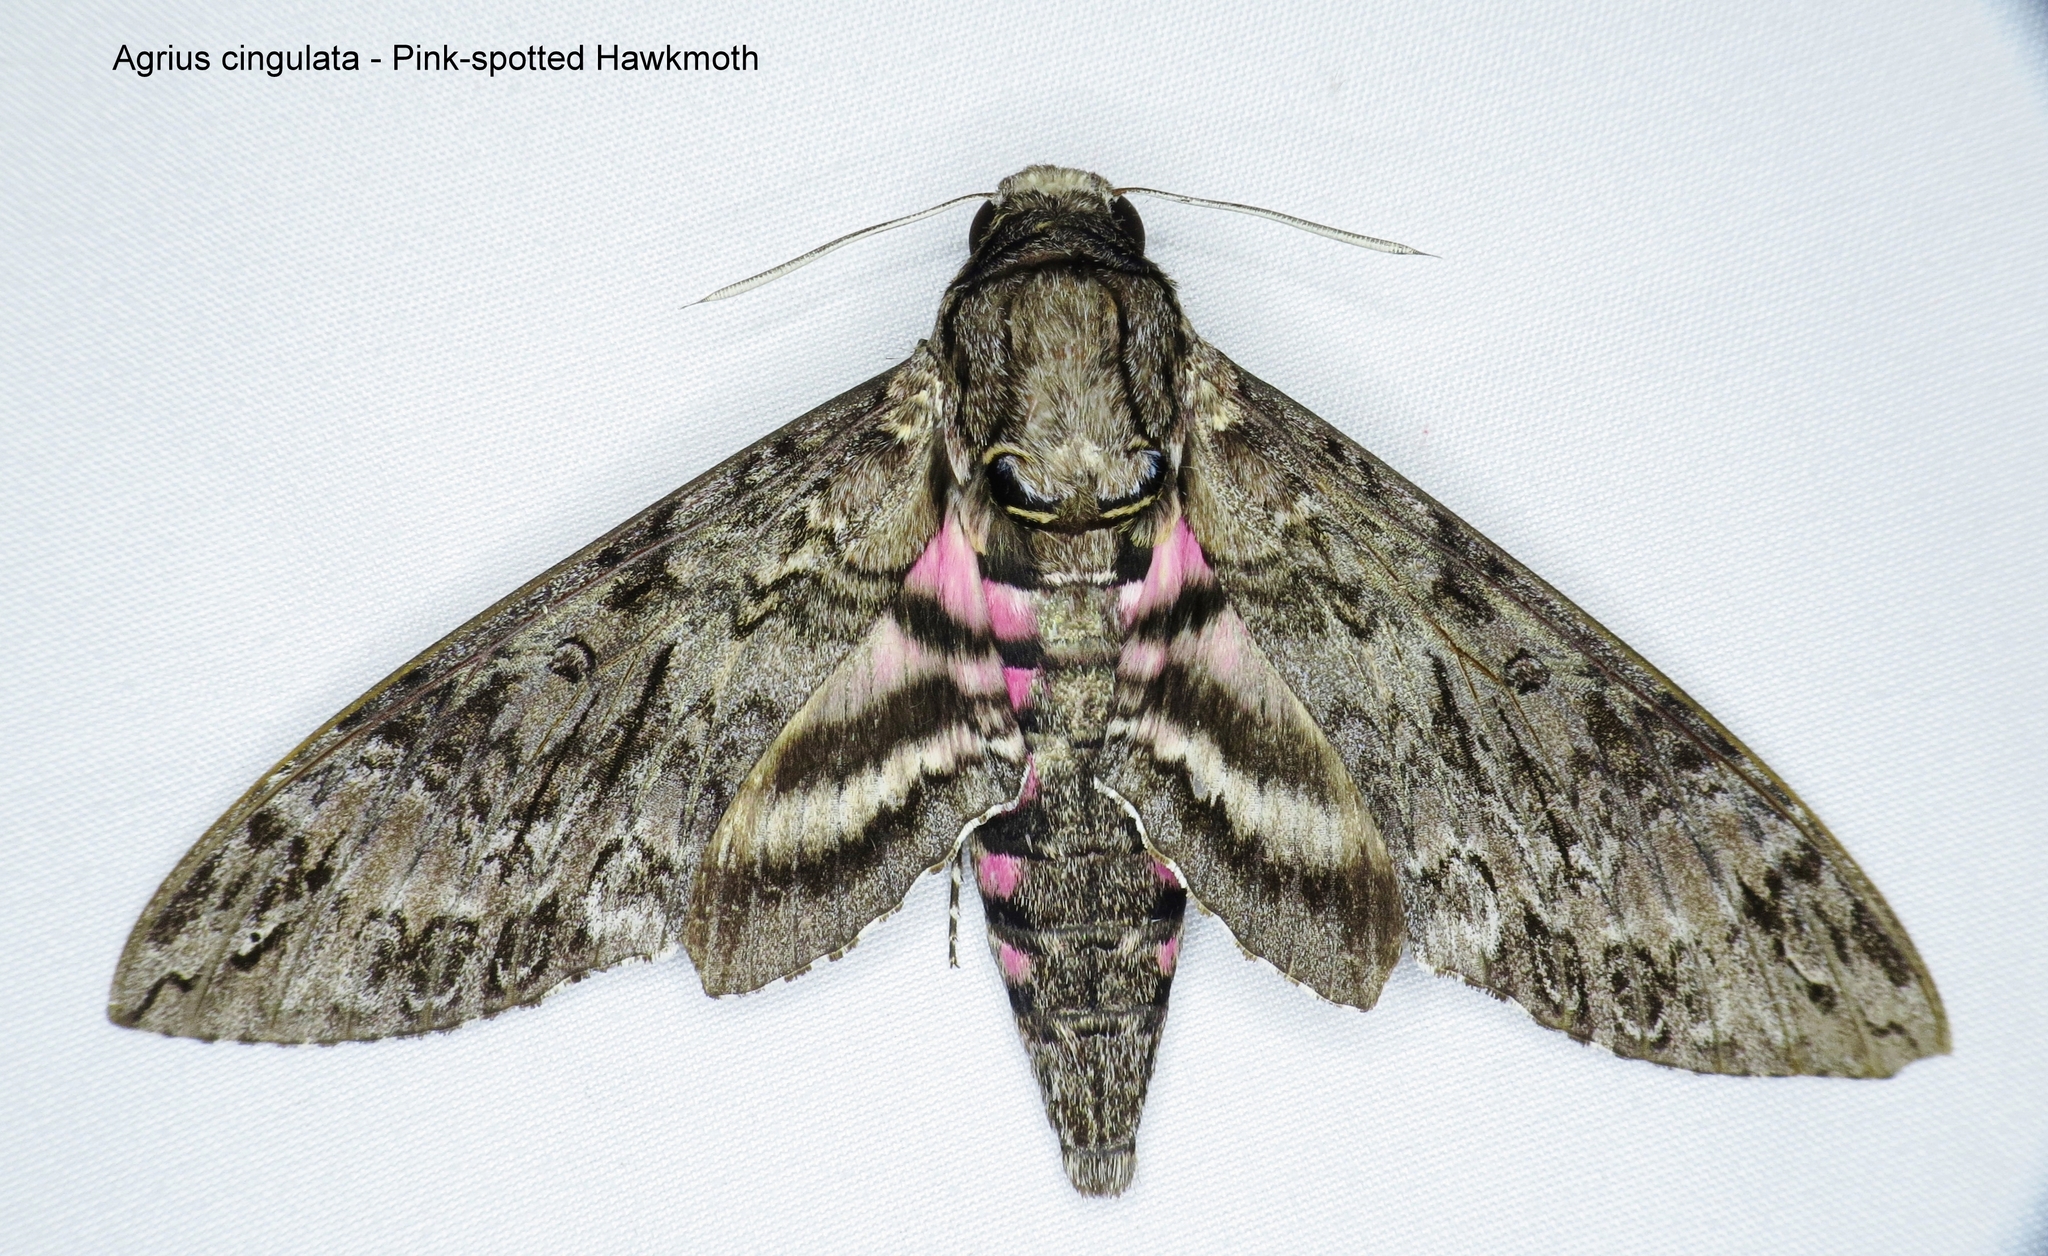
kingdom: Animalia
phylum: Arthropoda
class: Insecta
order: Lepidoptera
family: Sphingidae
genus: Agrius
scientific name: Agrius cingulata
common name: Pink-spotted hawkmoth
